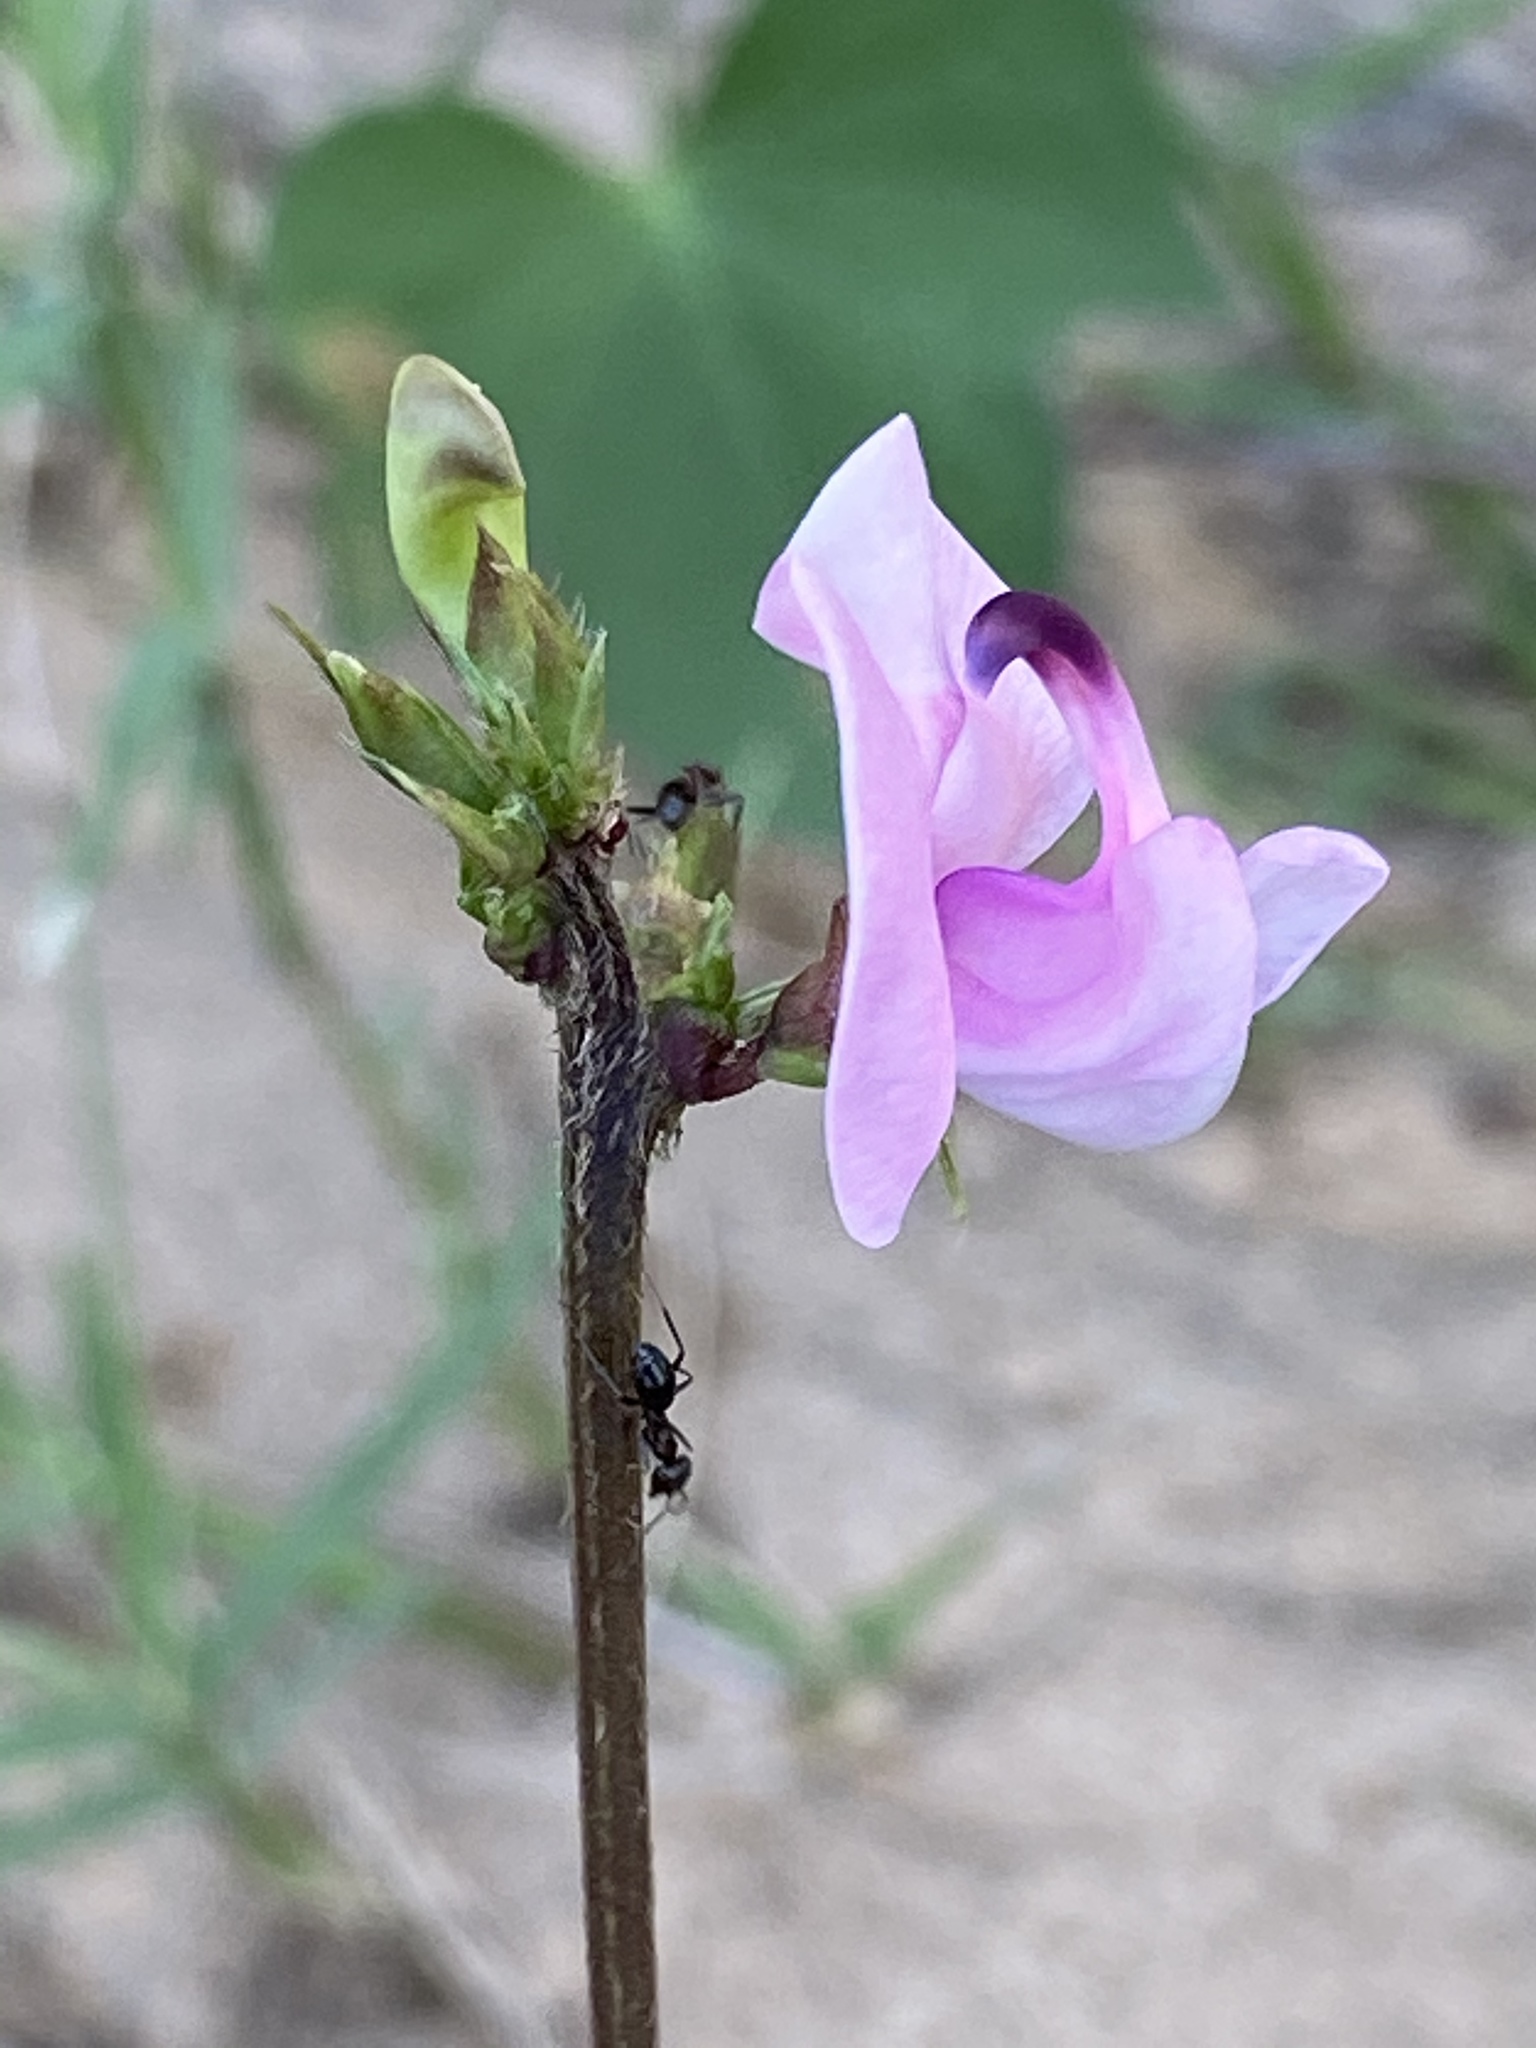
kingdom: Plantae
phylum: Tracheophyta
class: Magnoliopsida
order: Fabales
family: Fabaceae
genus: Strophostyles
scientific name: Strophostyles helvola
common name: Trailing wild bean
